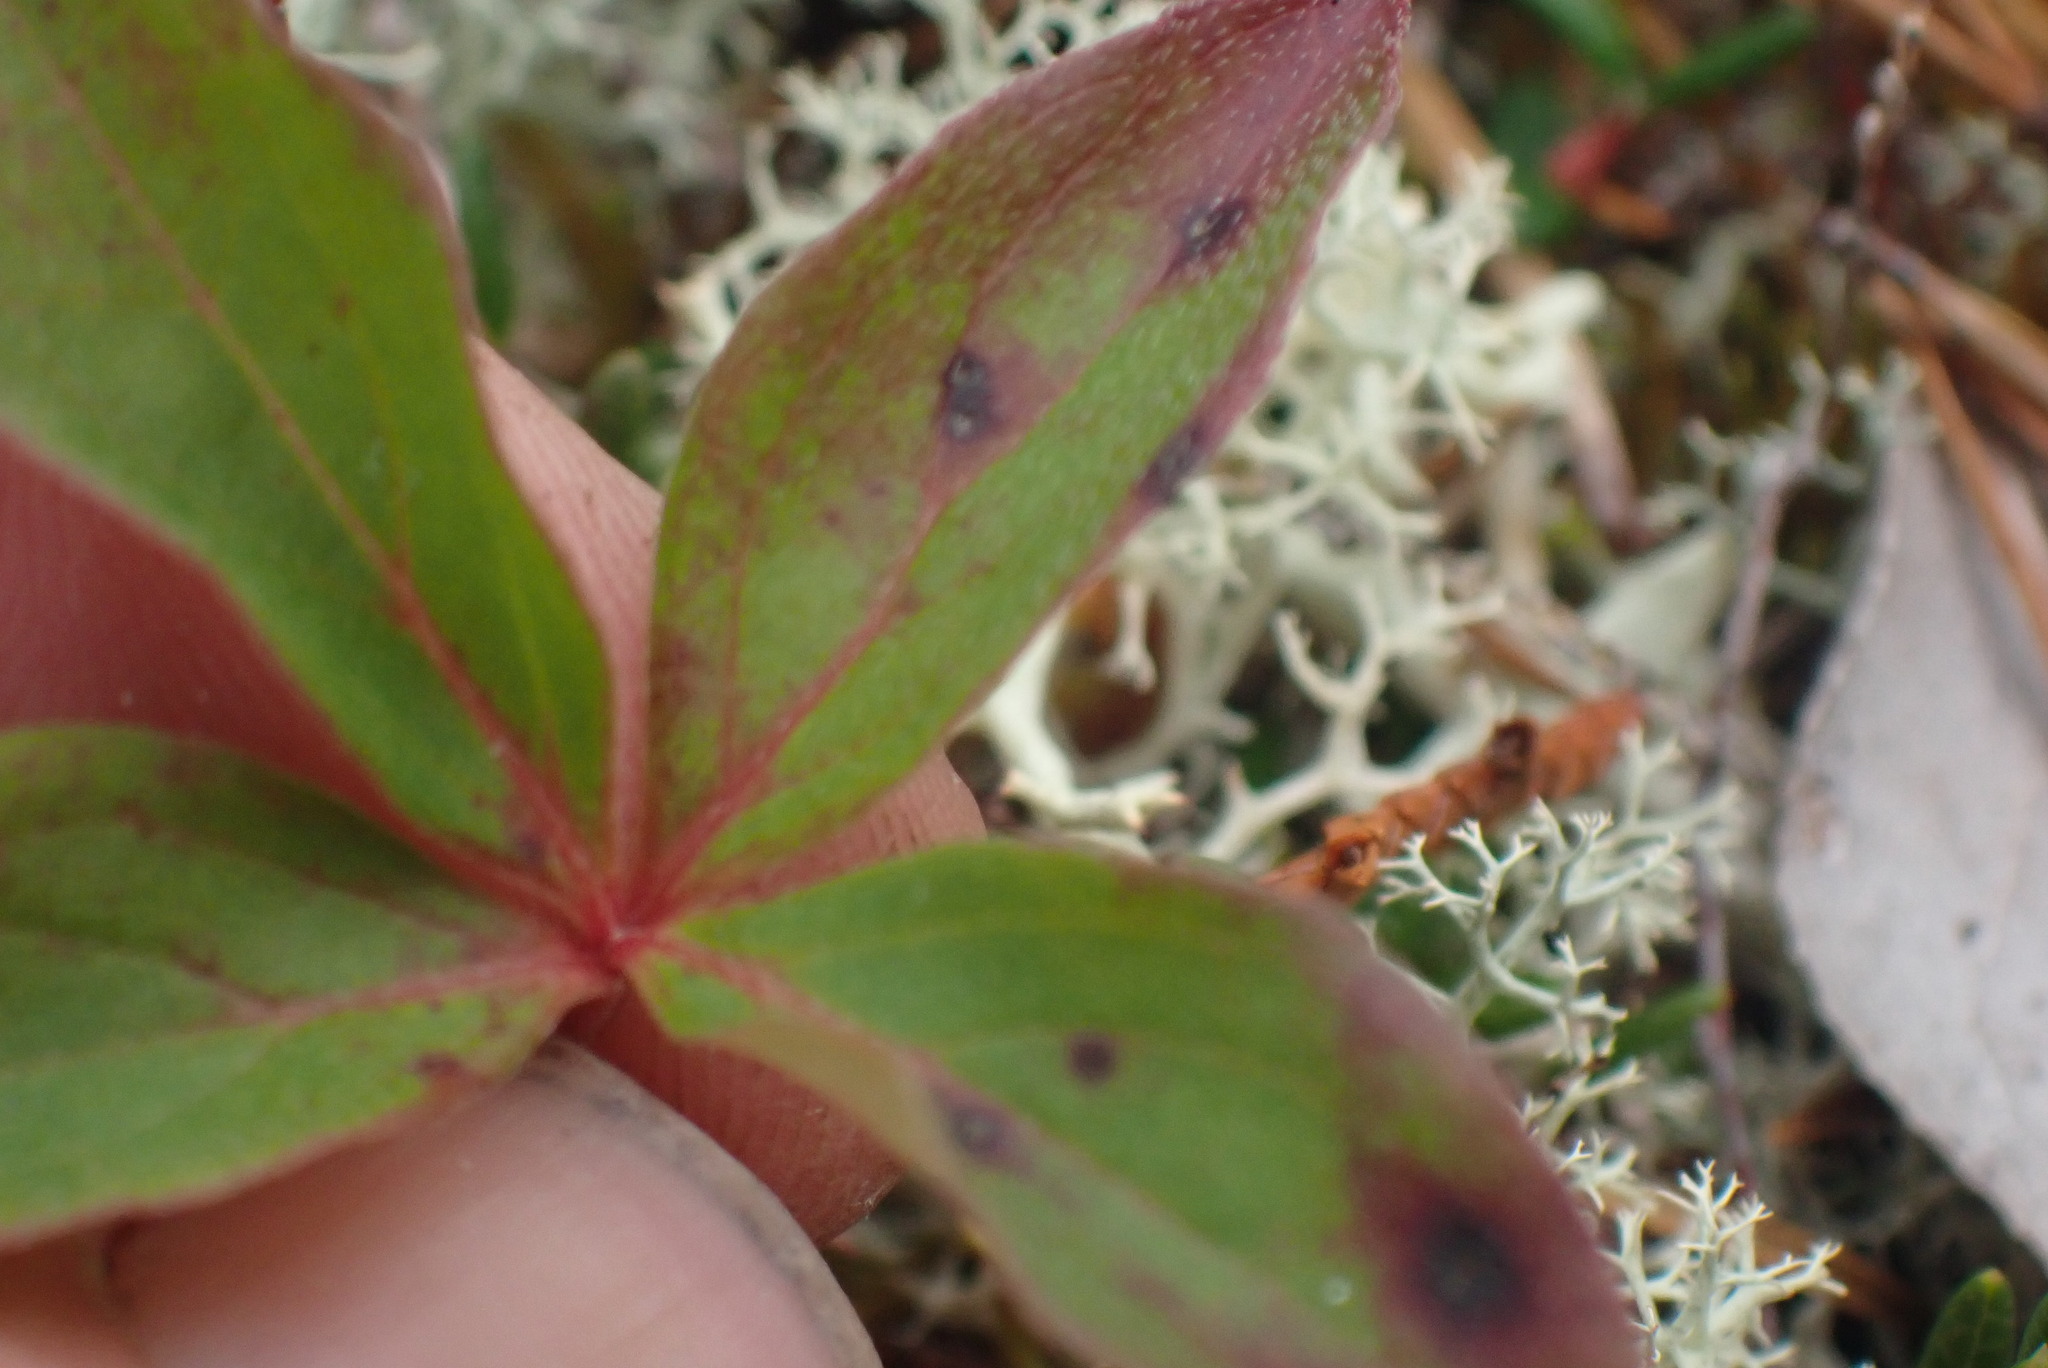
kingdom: Plantae
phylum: Tracheophyta
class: Magnoliopsida
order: Cornales
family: Cornaceae
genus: Cornus
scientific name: Cornus unalaschkensis
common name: Alaska bunchberry
